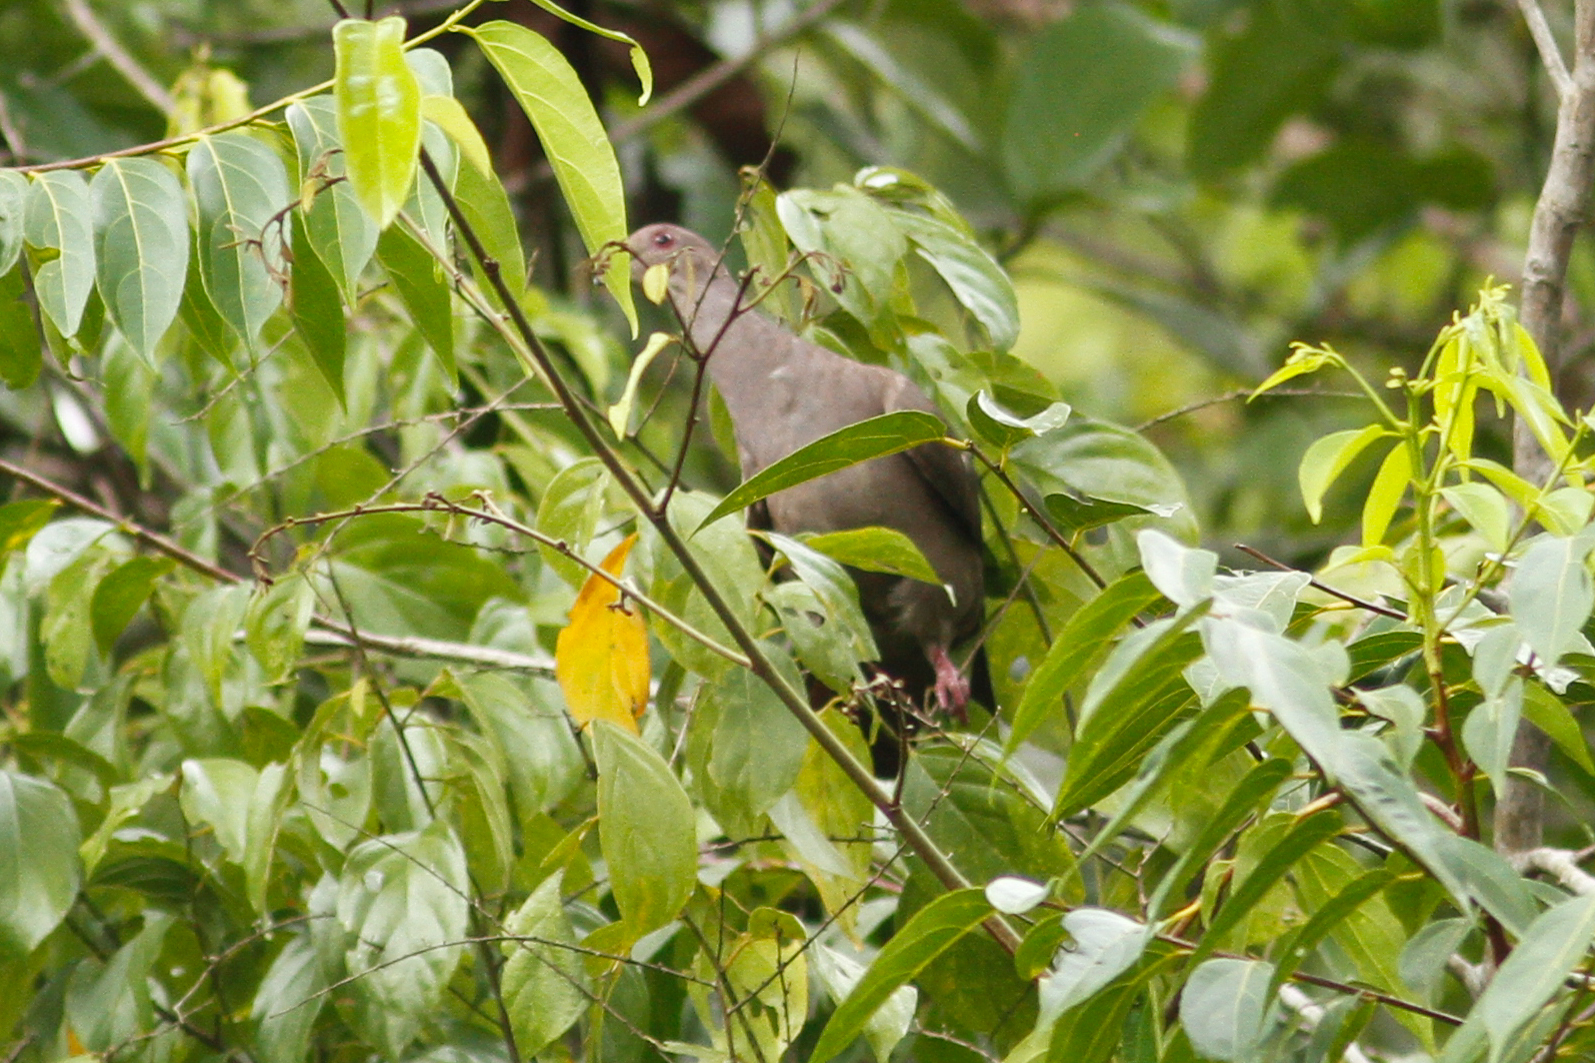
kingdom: Animalia
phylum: Chordata
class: Aves
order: Columbiformes
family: Columbidae
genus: Patagioenas
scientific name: Patagioenas subvinacea
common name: Ruddy pigeon
